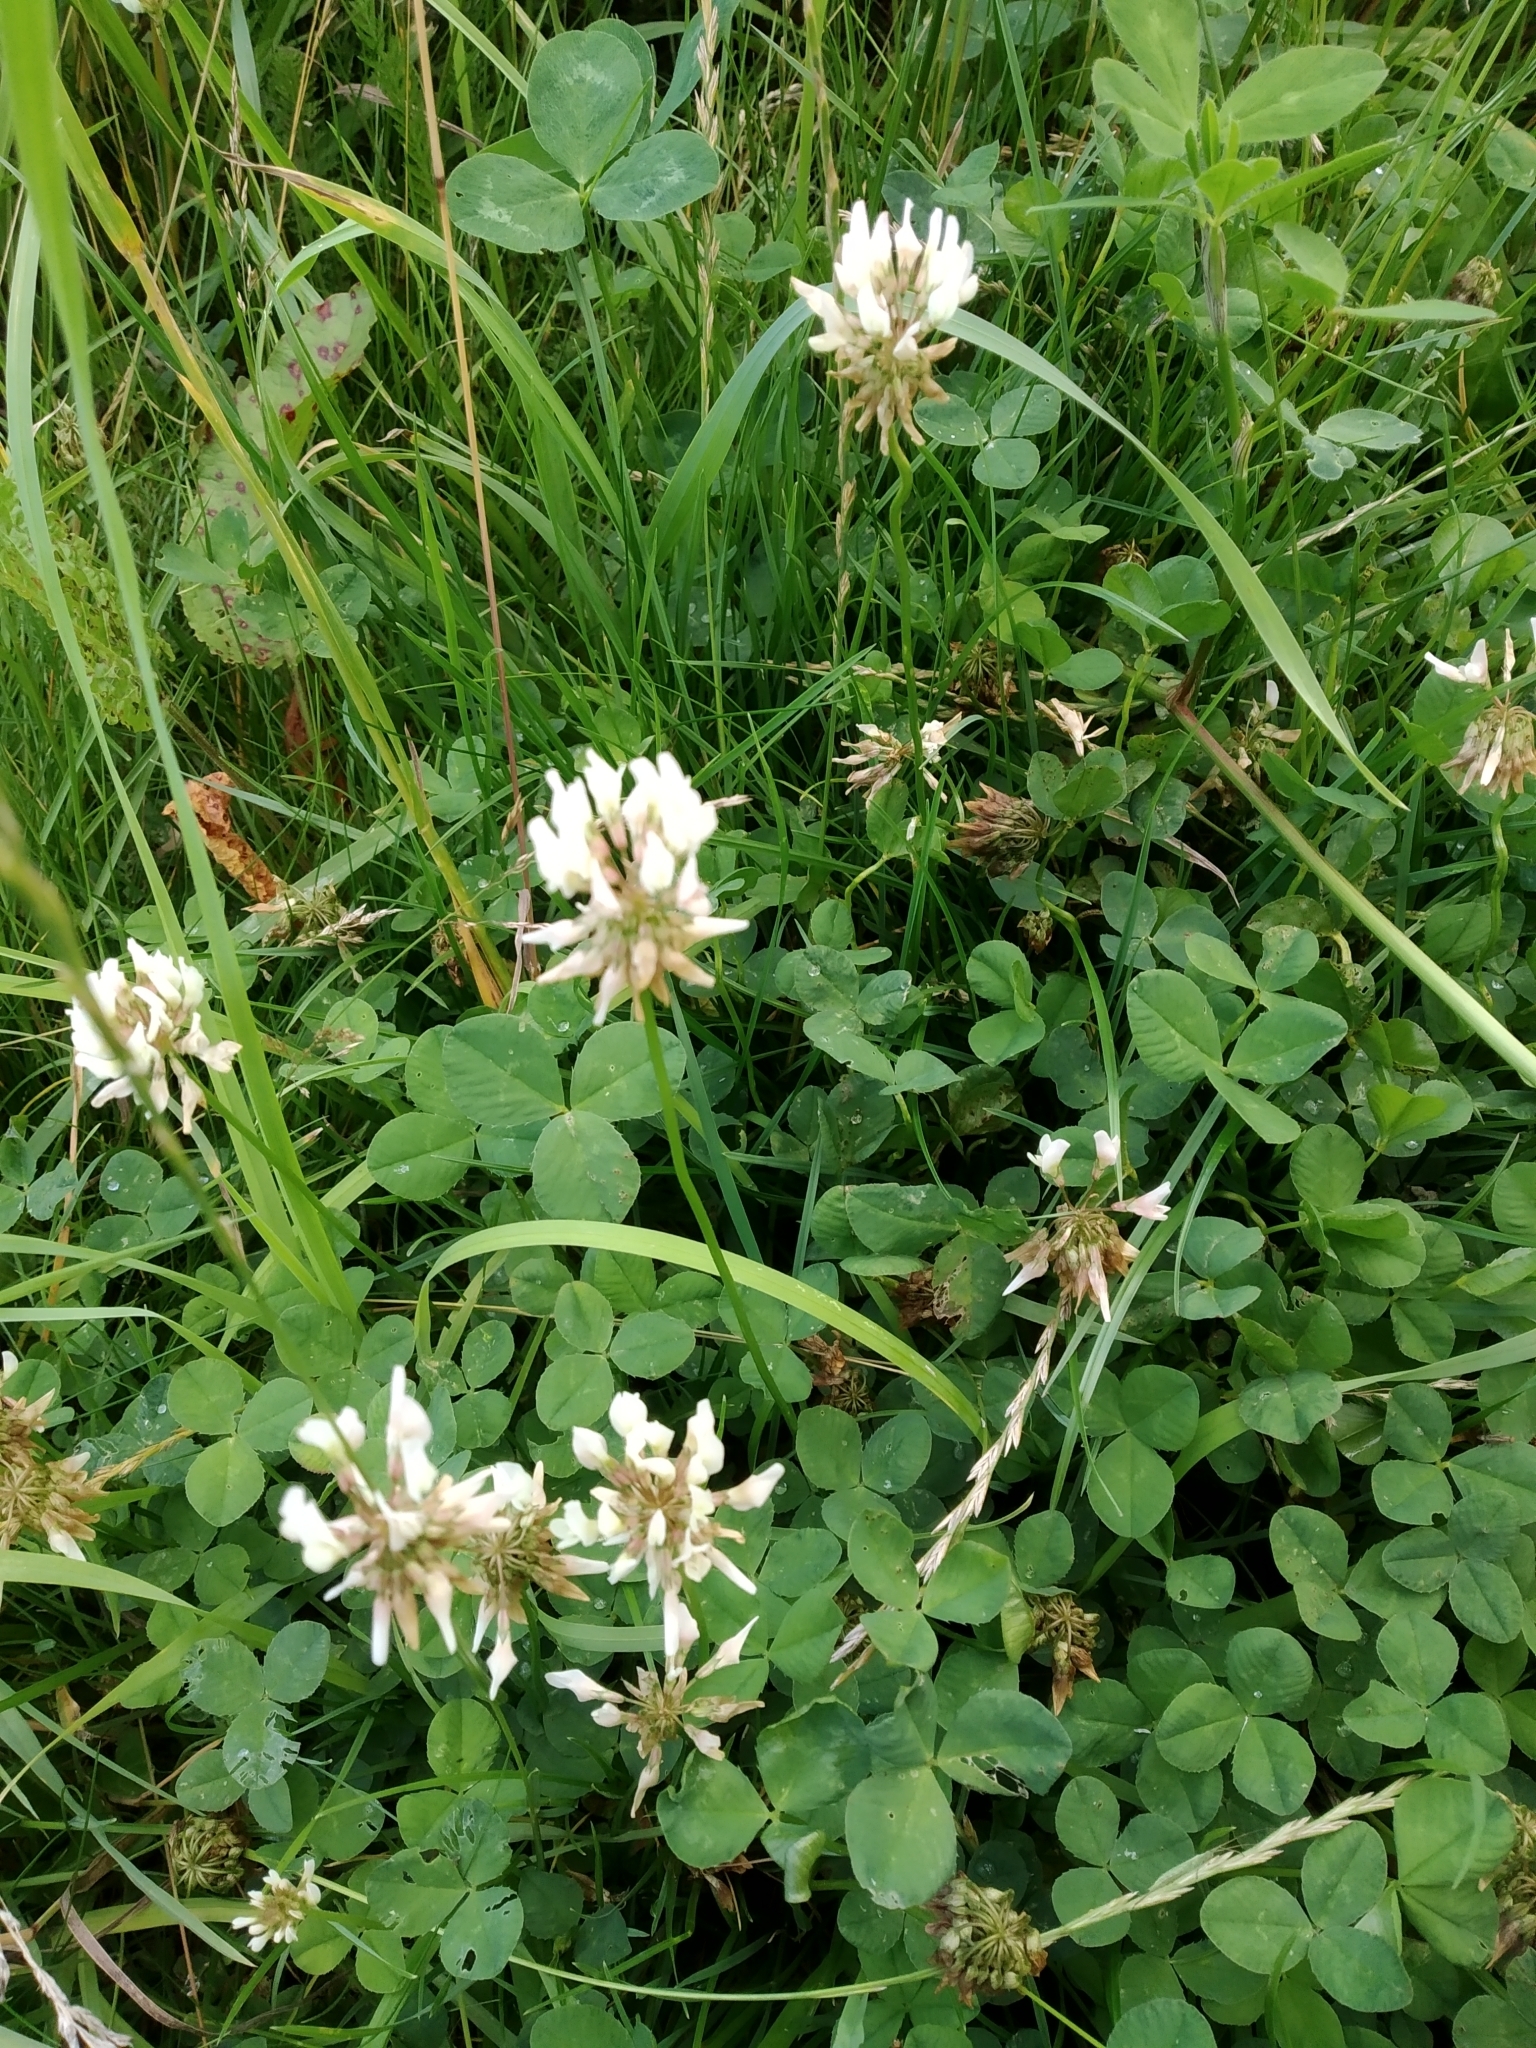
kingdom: Plantae
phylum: Tracheophyta
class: Magnoliopsida
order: Fabales
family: Fabaceae
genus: Trifolium
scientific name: Trifolium repens
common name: White clover
